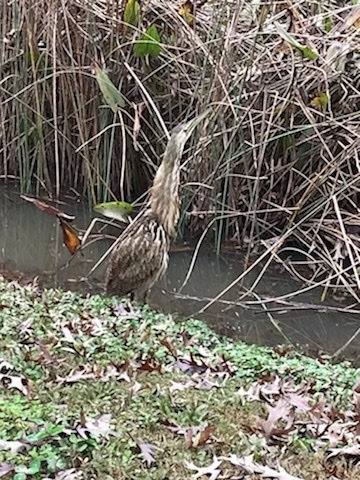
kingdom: Animalia
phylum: Chordata
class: Aves
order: Pelecaniformes
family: Ardeidae
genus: Botaurus
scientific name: Botaurus lentiginosus
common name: American bittern
